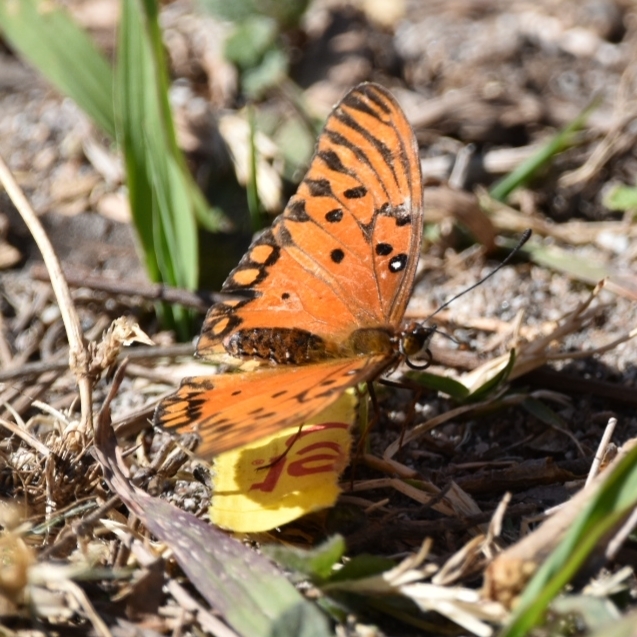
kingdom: Animalia
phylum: Arthropoda
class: Insecta
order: Lepidoptera
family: Nymphalidae
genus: Dione
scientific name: Dione vanillae
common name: Gulf fritillary
